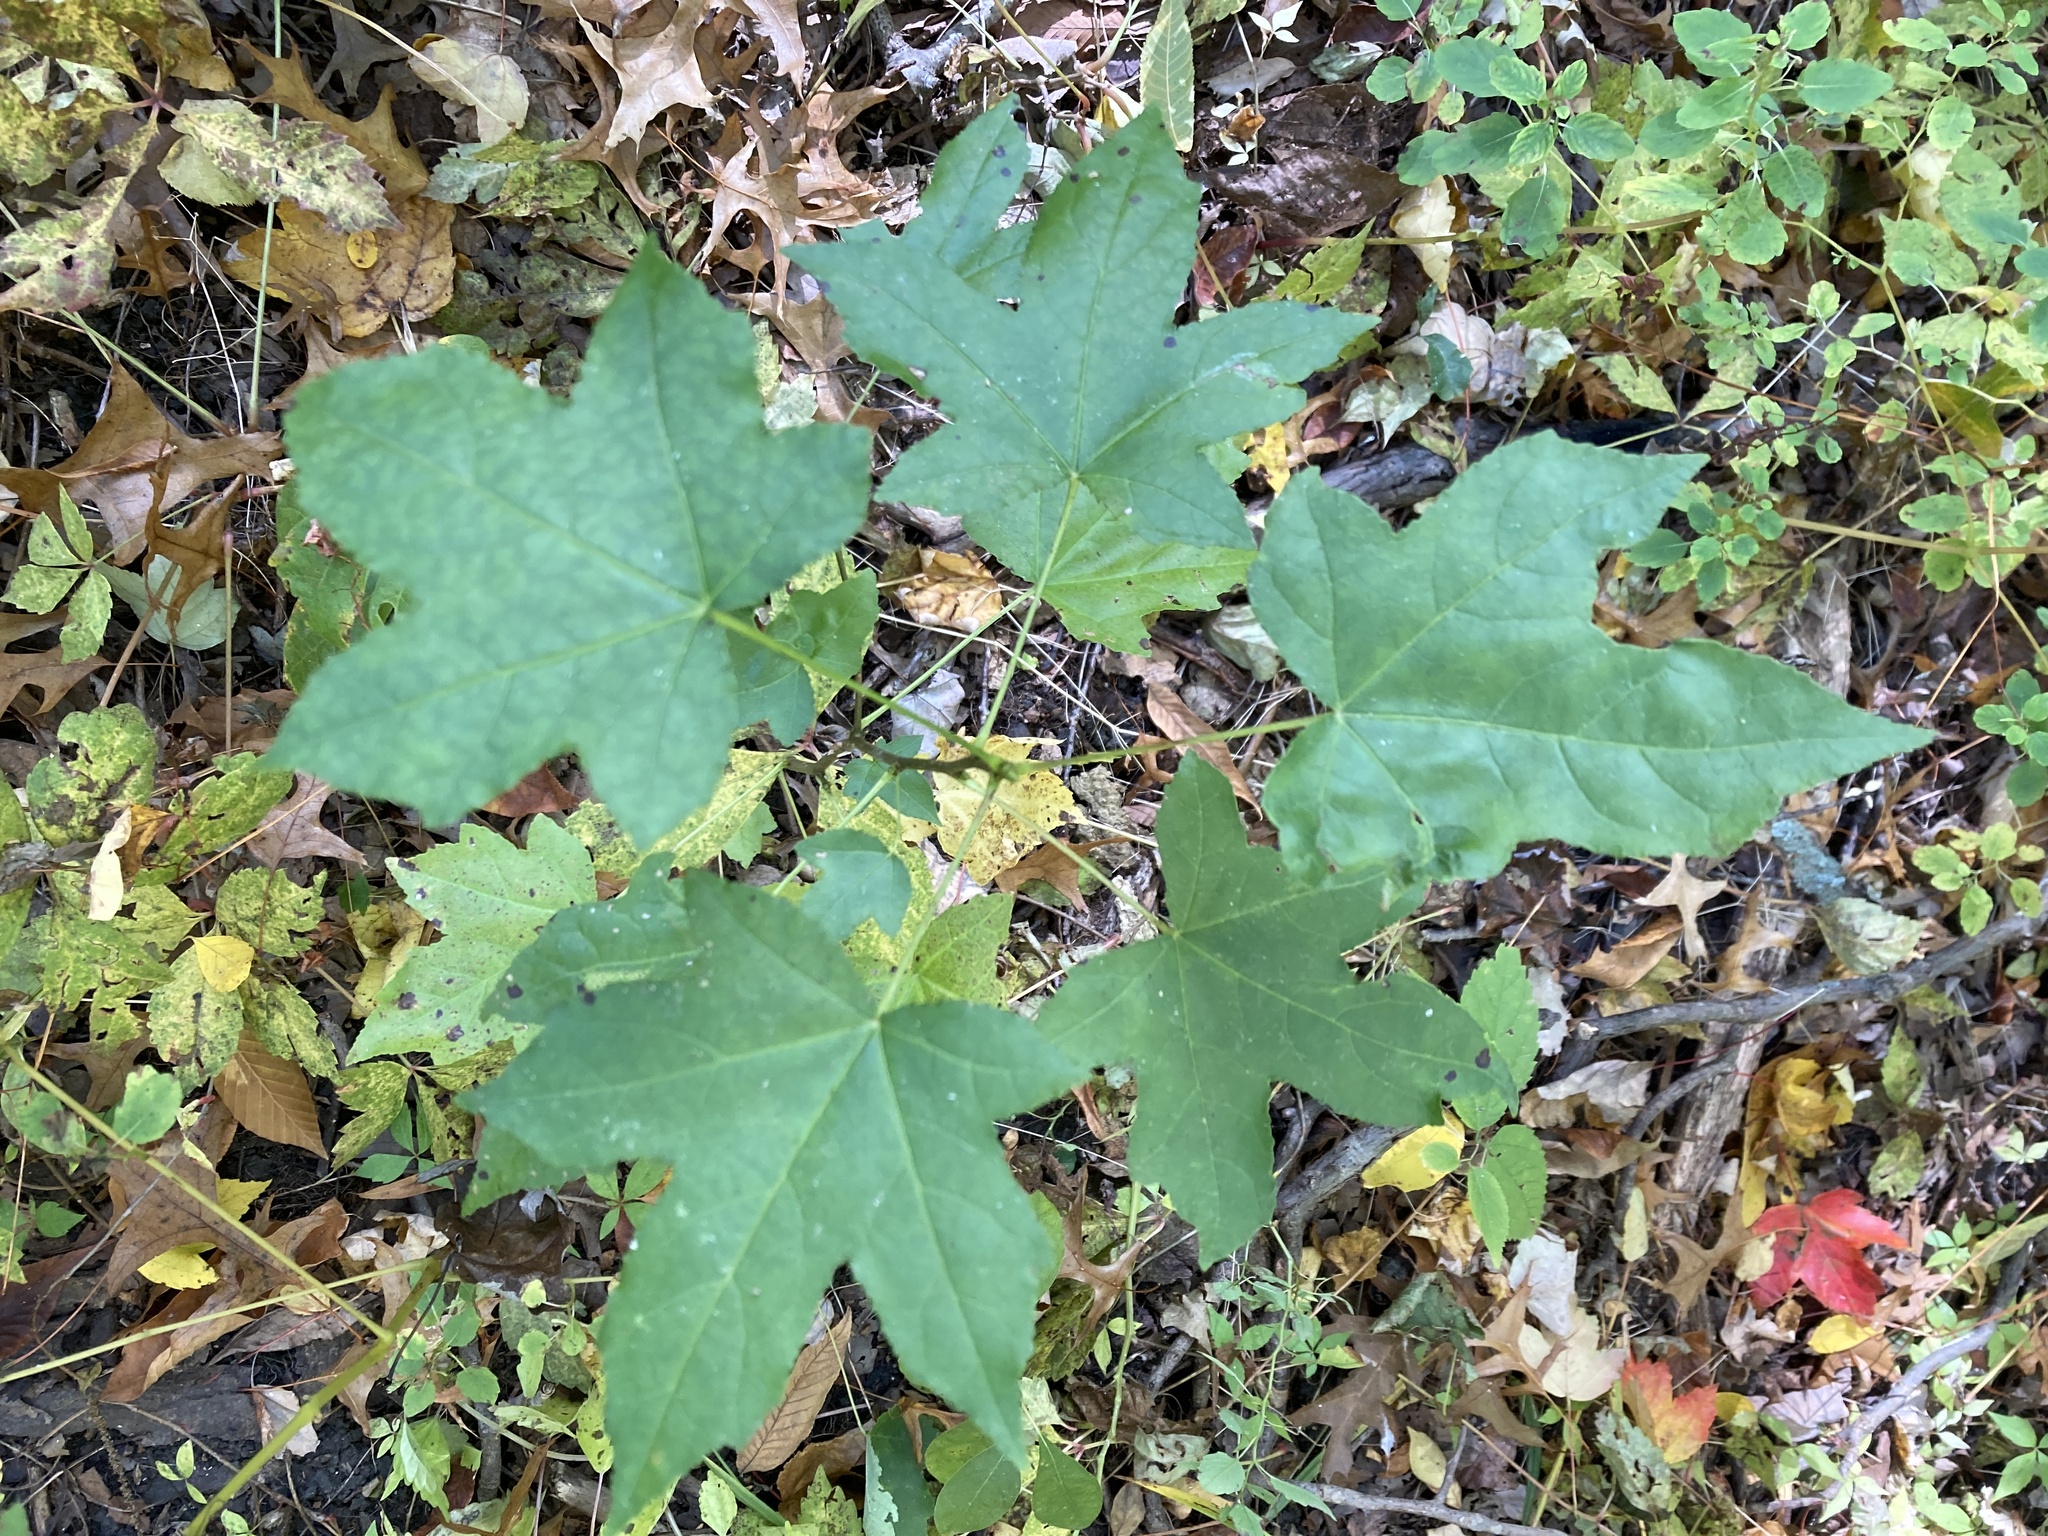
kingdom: Plantae
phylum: Tracheophyta
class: Magnoliopsida
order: Saxifragales
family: Altingiaceae
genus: Liquidambar
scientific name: Liquidambar styraciflua
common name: Sweet gum
